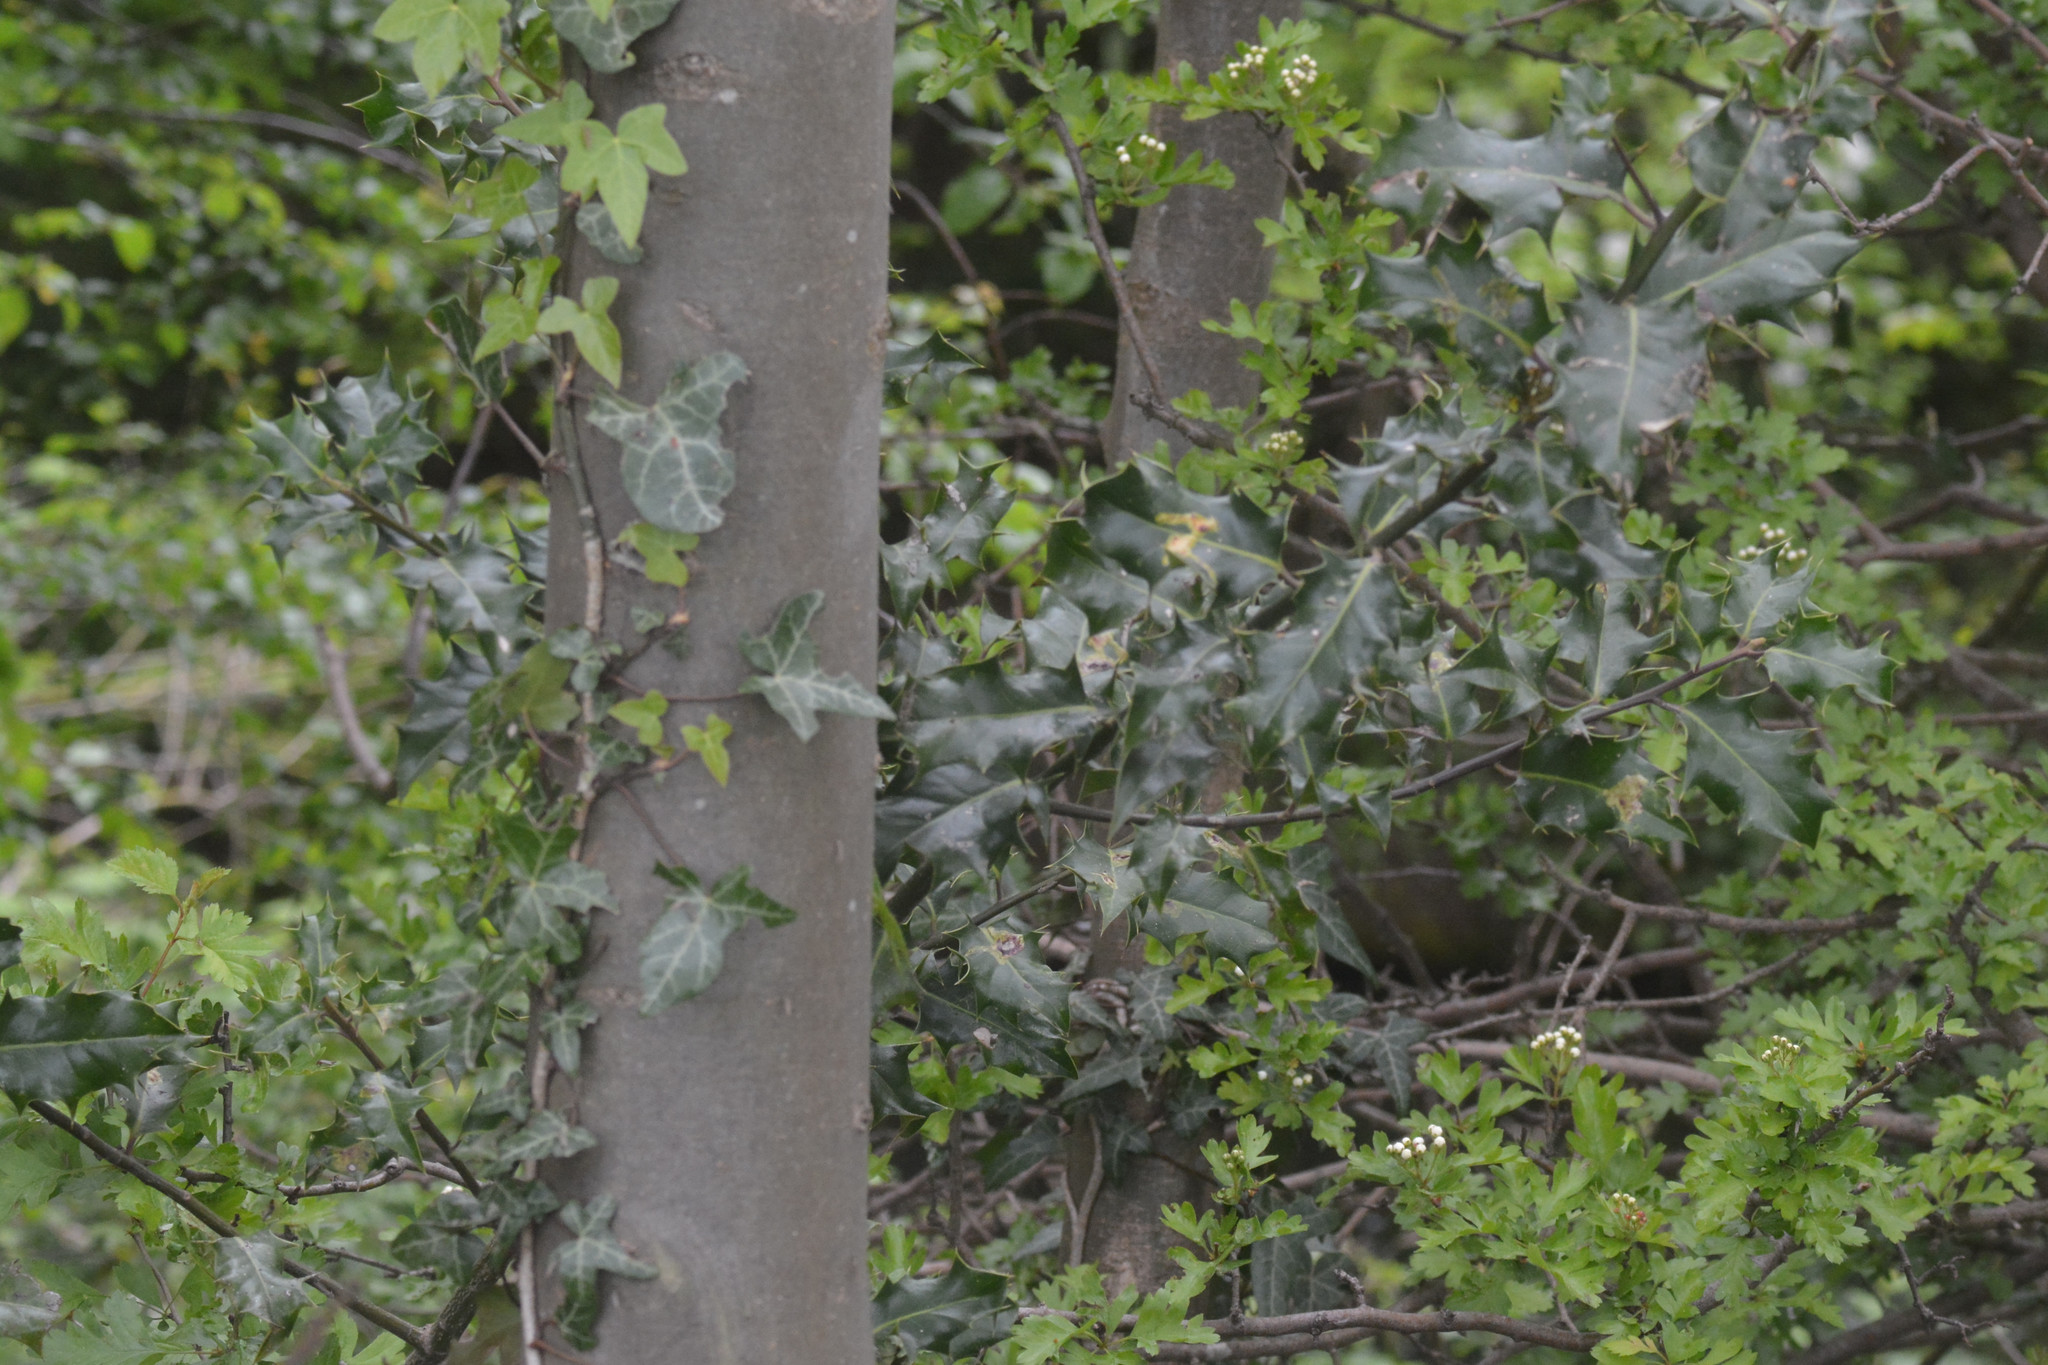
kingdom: Plantae
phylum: Tracheophyta
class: Magnoliopsida
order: Aquifoliales
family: Aquifoliaceae
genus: Ilex
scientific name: Ilex aquifolium
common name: English holly
